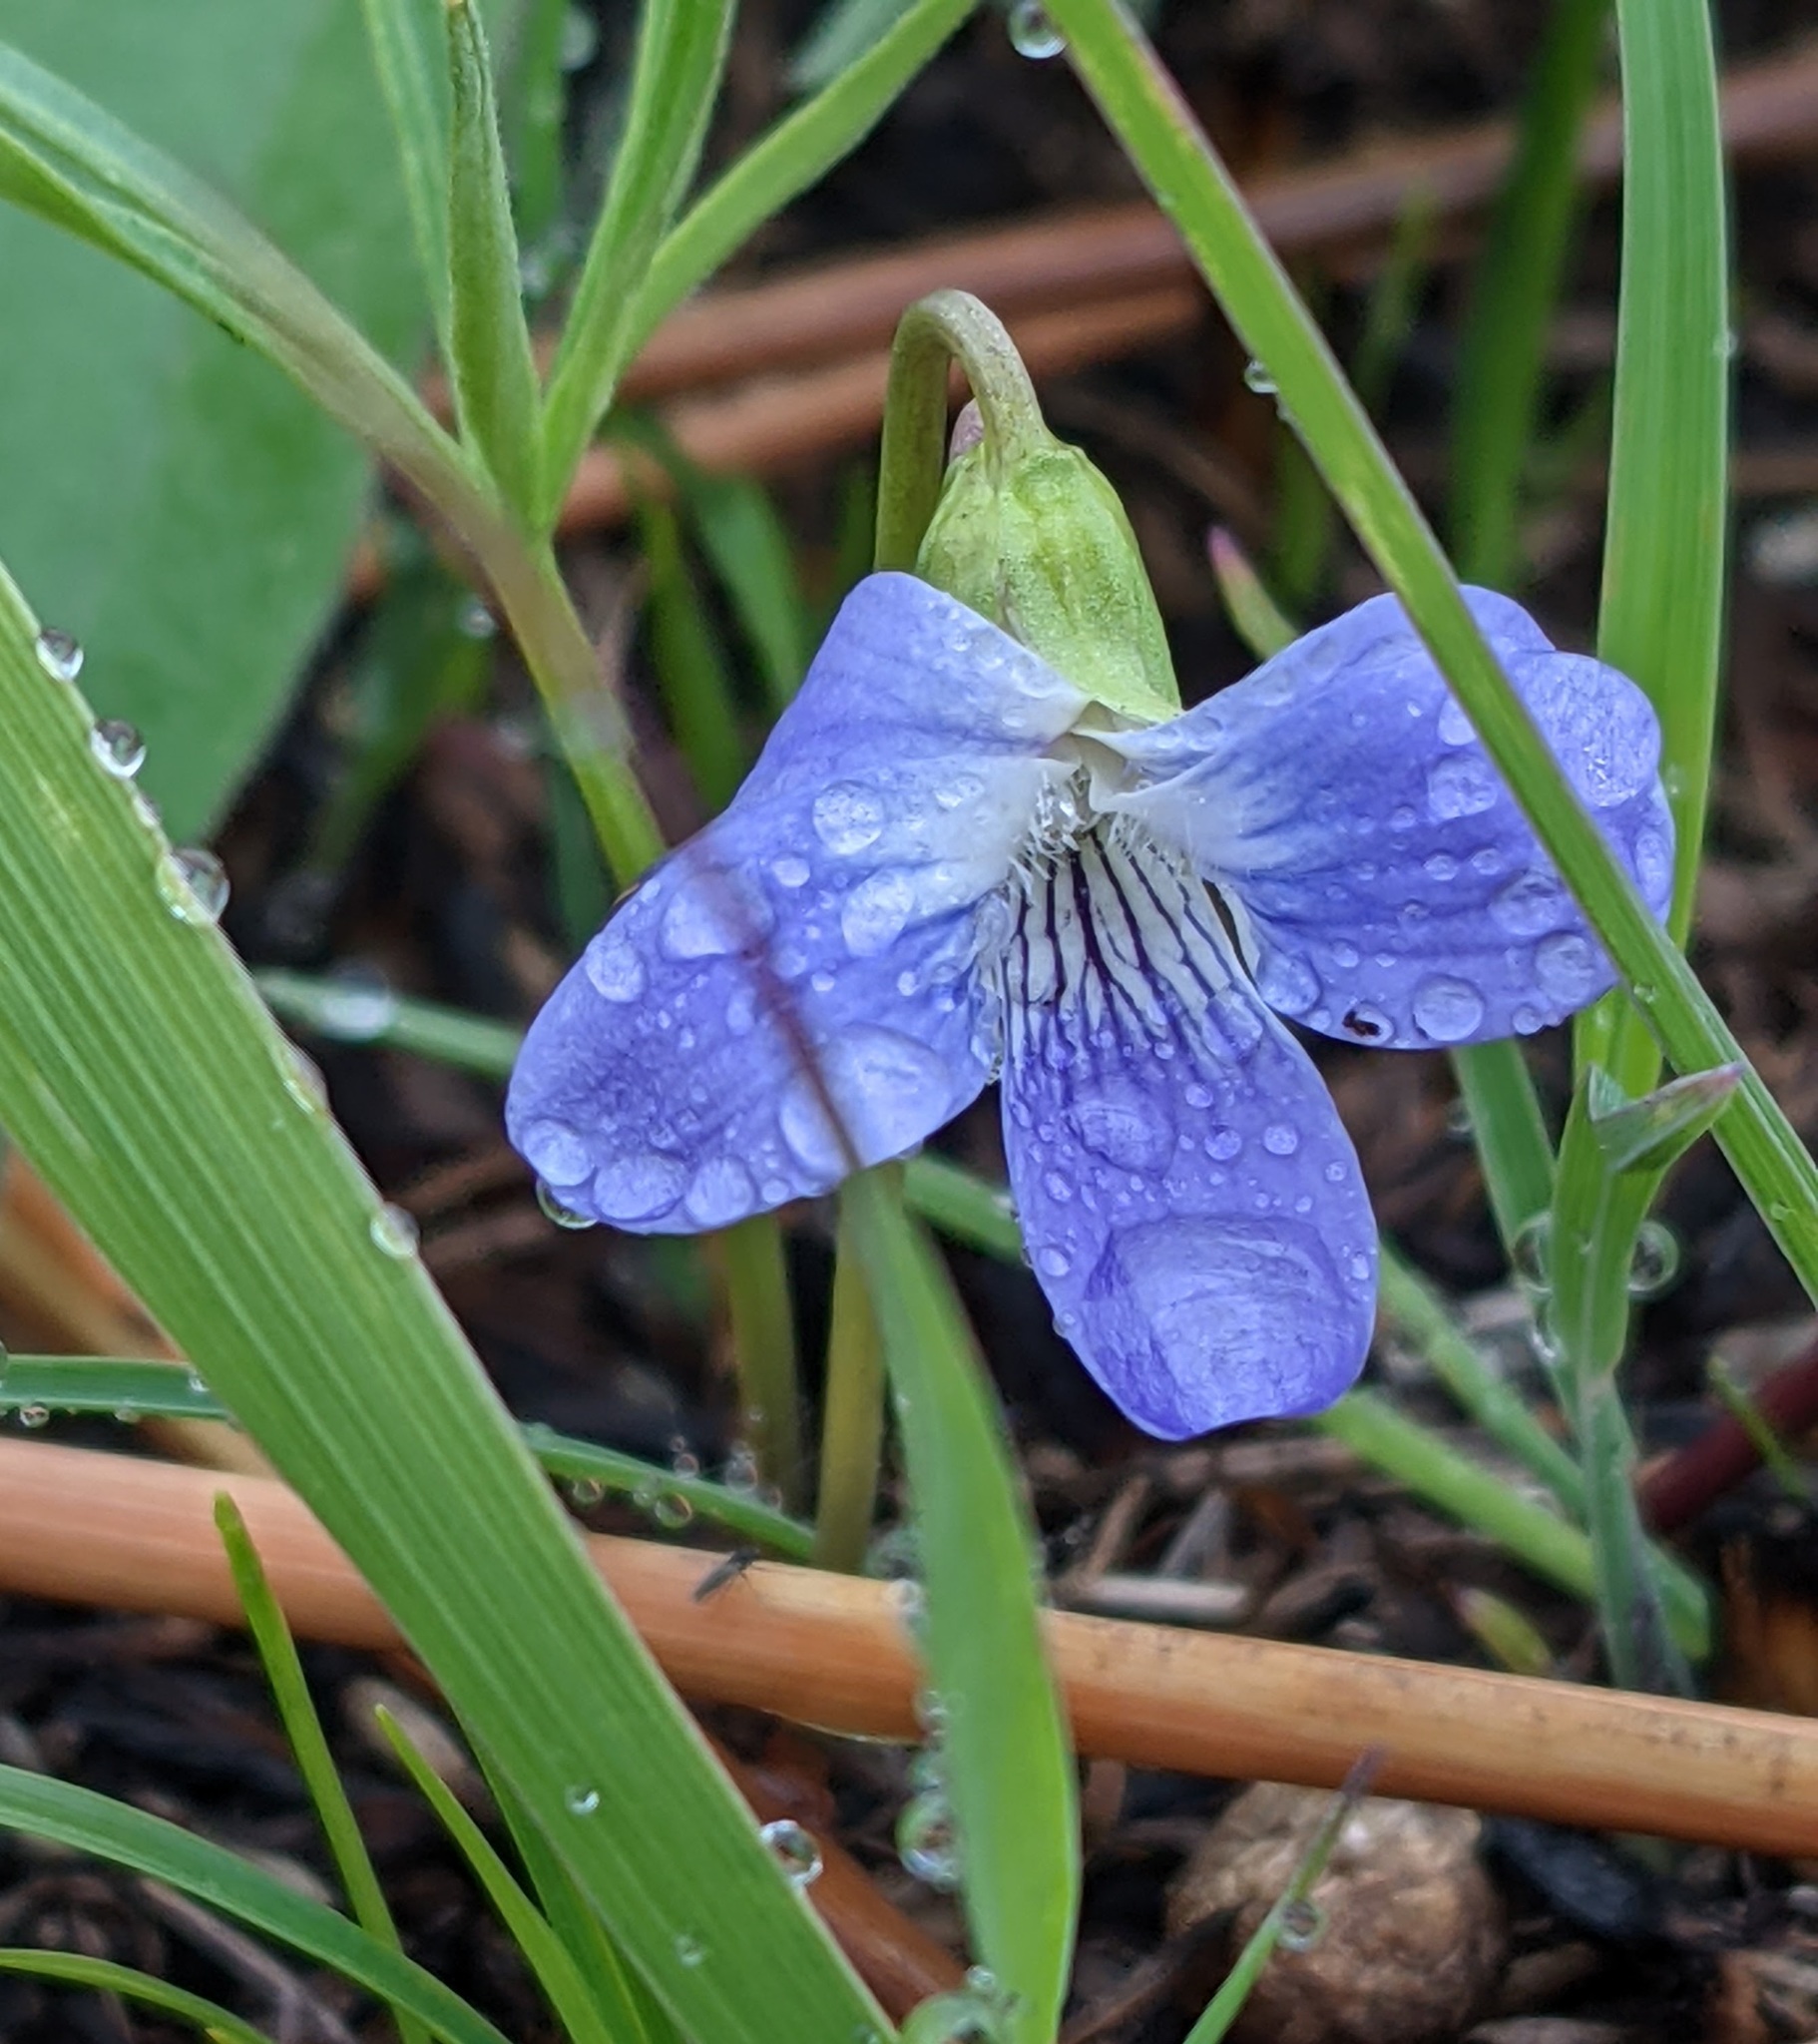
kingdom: Plantae
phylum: Tracheophyta
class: Magnoliopsida
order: Malpighiales
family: Violaceae
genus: Viola
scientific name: Viola pedatifida
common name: Prairie violet
